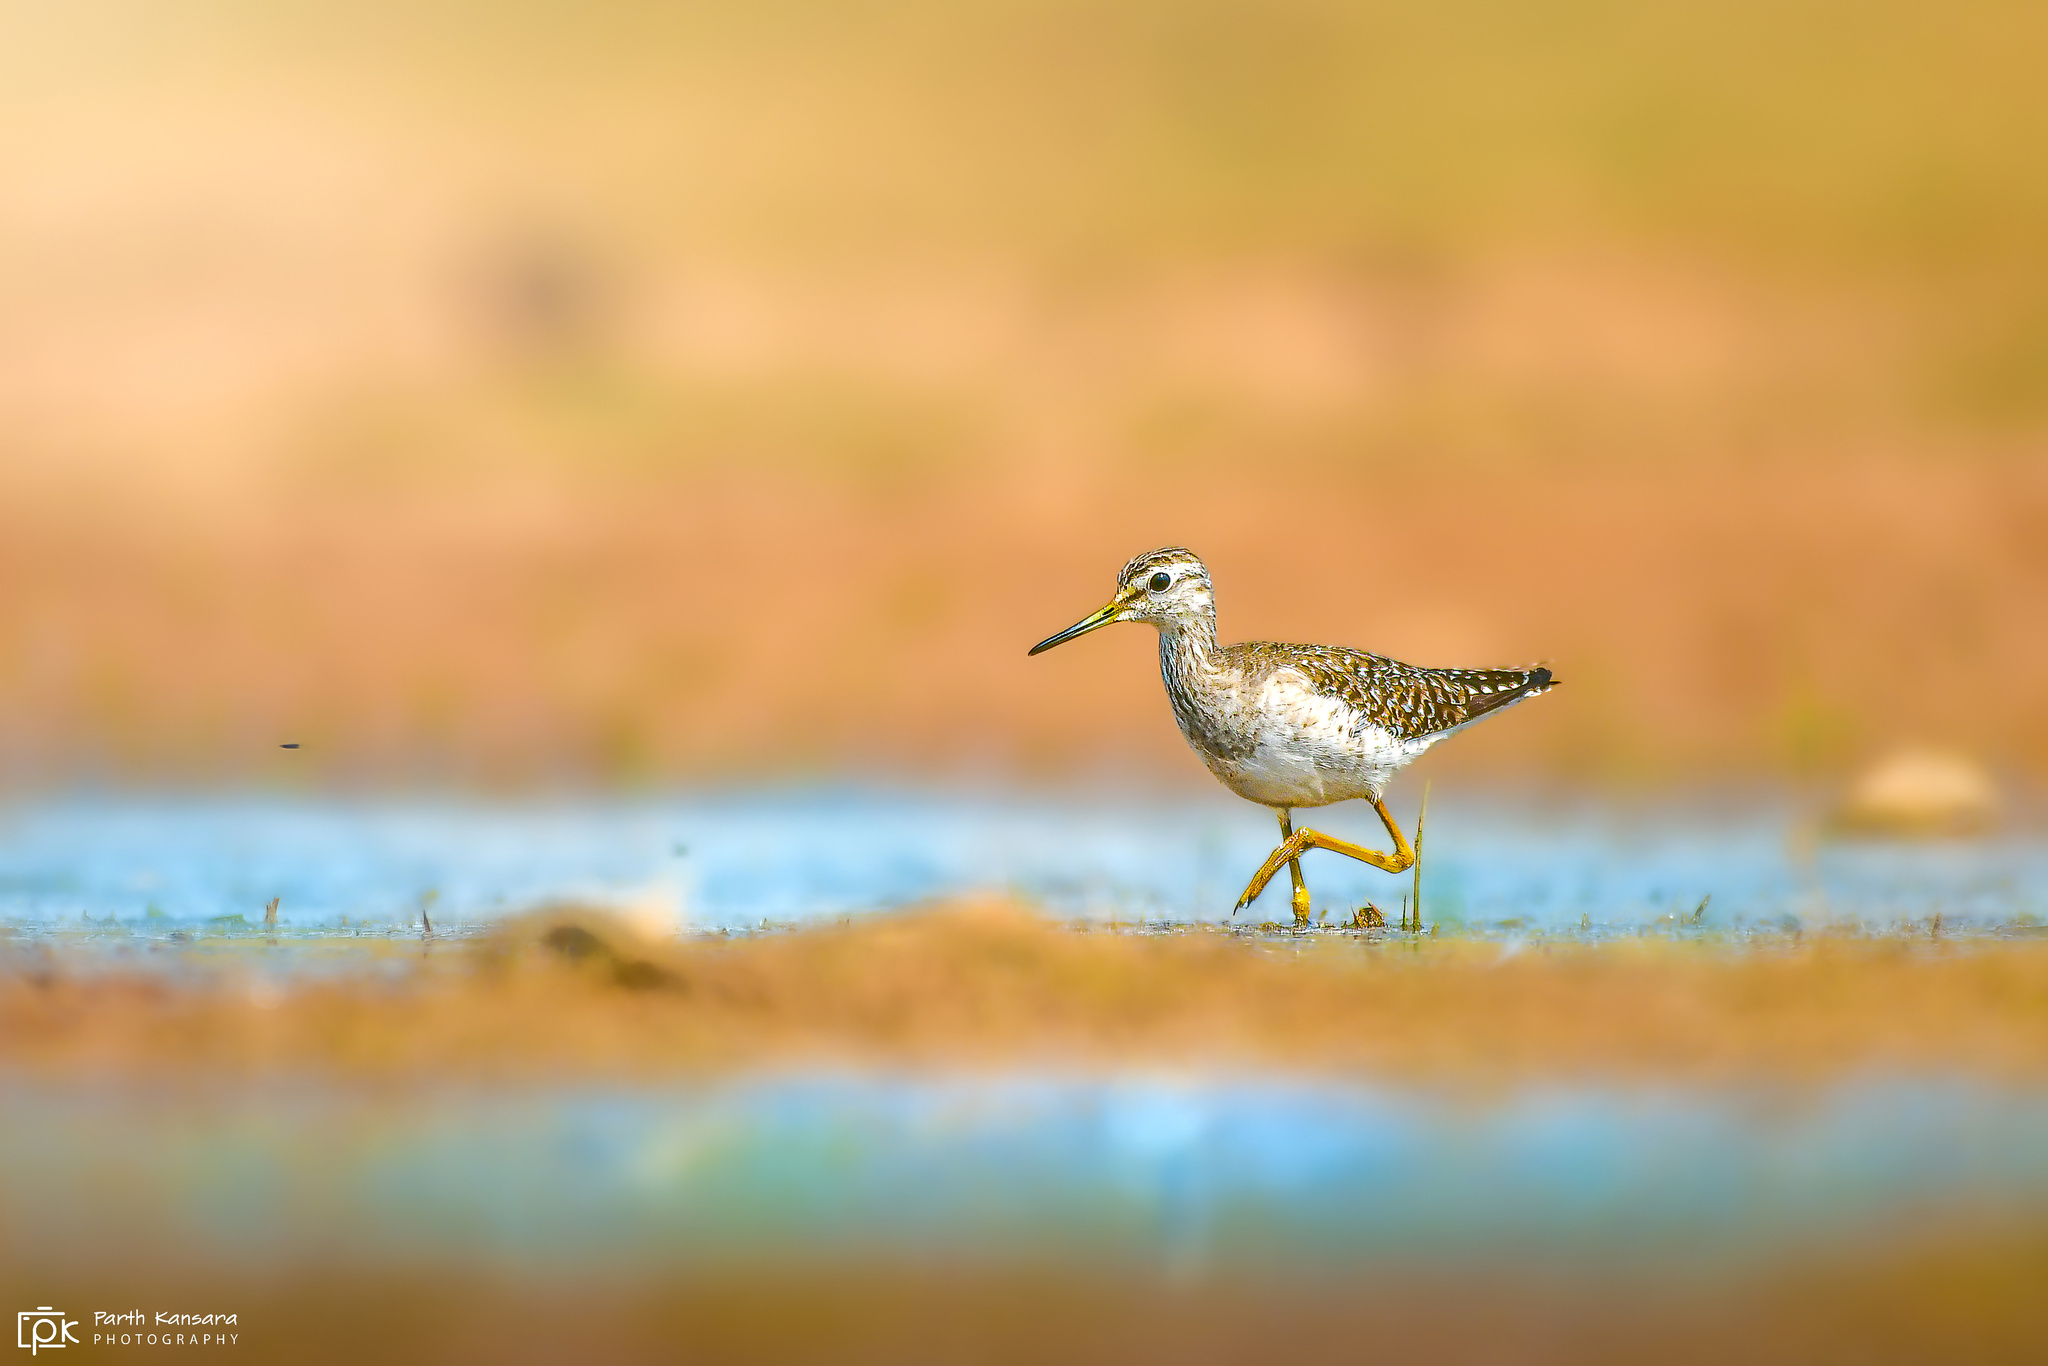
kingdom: Animalia
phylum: Chordata
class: Aves
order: Charadriiformes
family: Scolopacidae
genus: Tringa
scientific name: Tringa glareola
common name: Wood sandpiper
